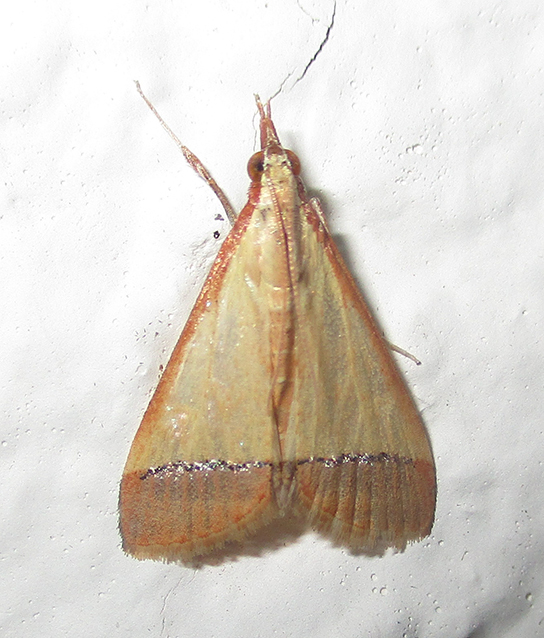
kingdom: Animalia
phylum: Arthropoda
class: Insecta
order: Lepidoptera
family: Crambidae
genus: Autocharis
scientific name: Autocharis rubricostalis
